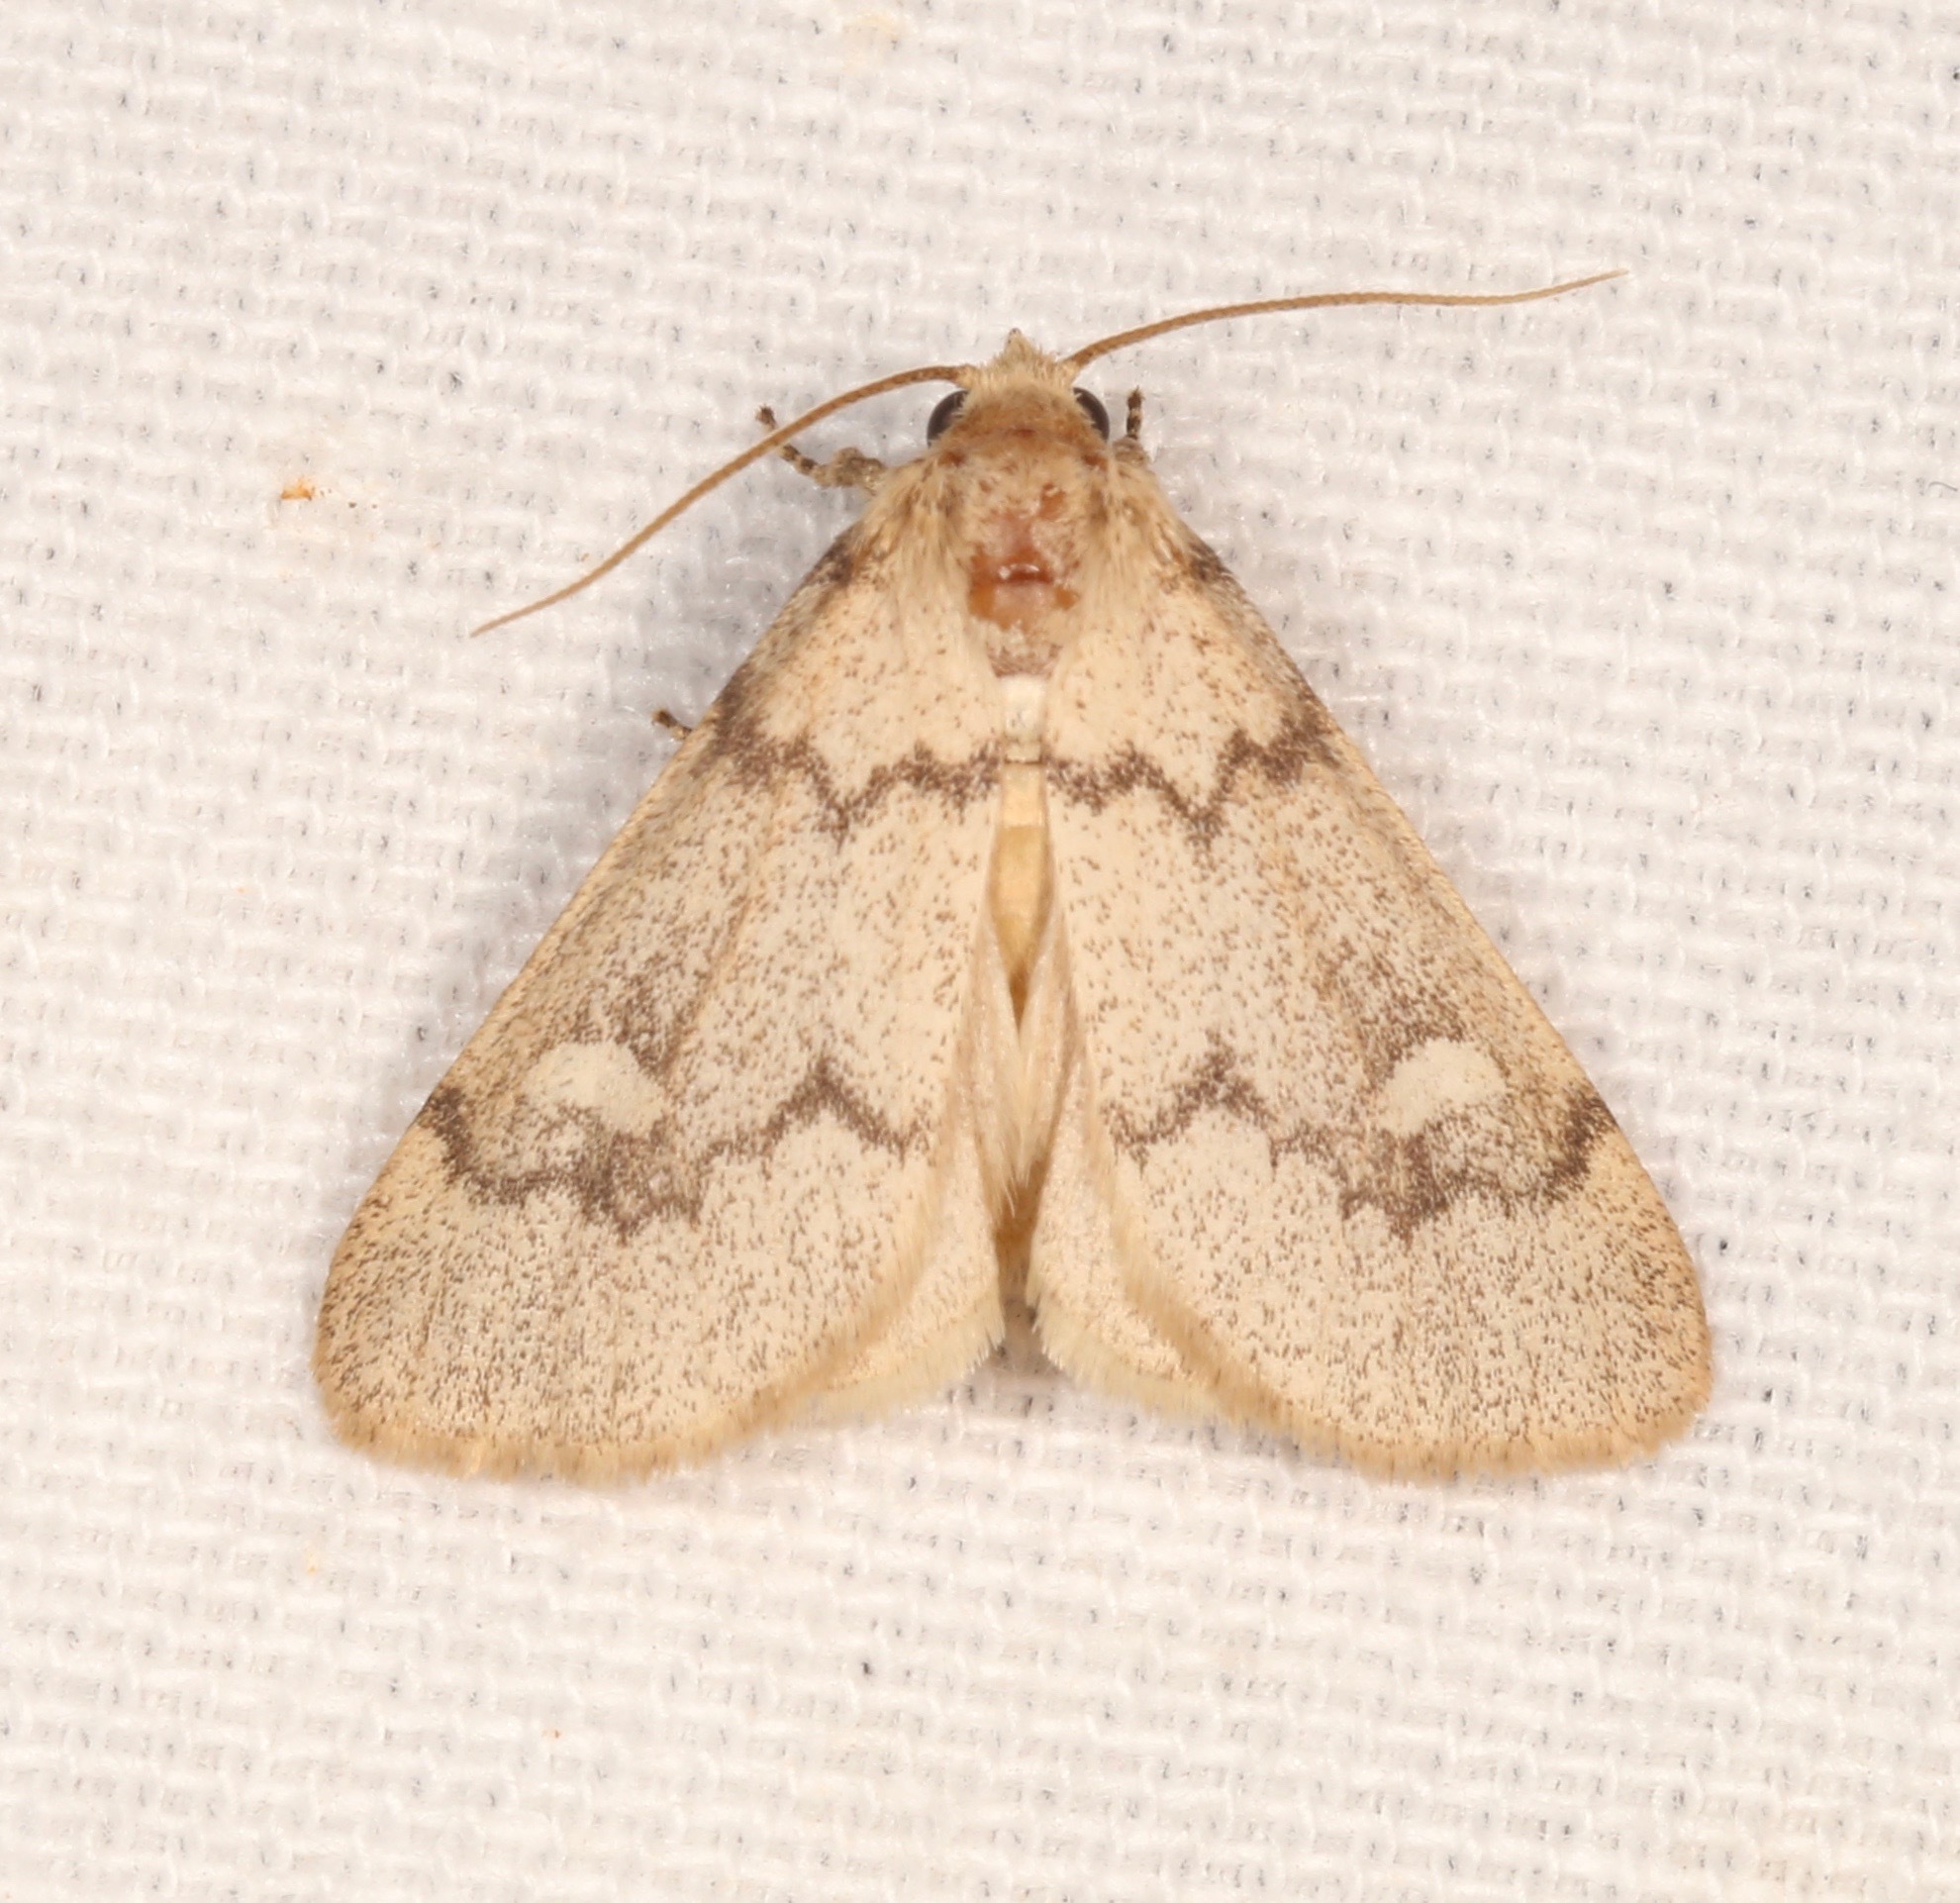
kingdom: Animalia
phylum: Arthropoda
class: Insecta
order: Lepidoptera
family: Noctuidae
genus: Narthecophora
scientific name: Narthecophora pulverea
